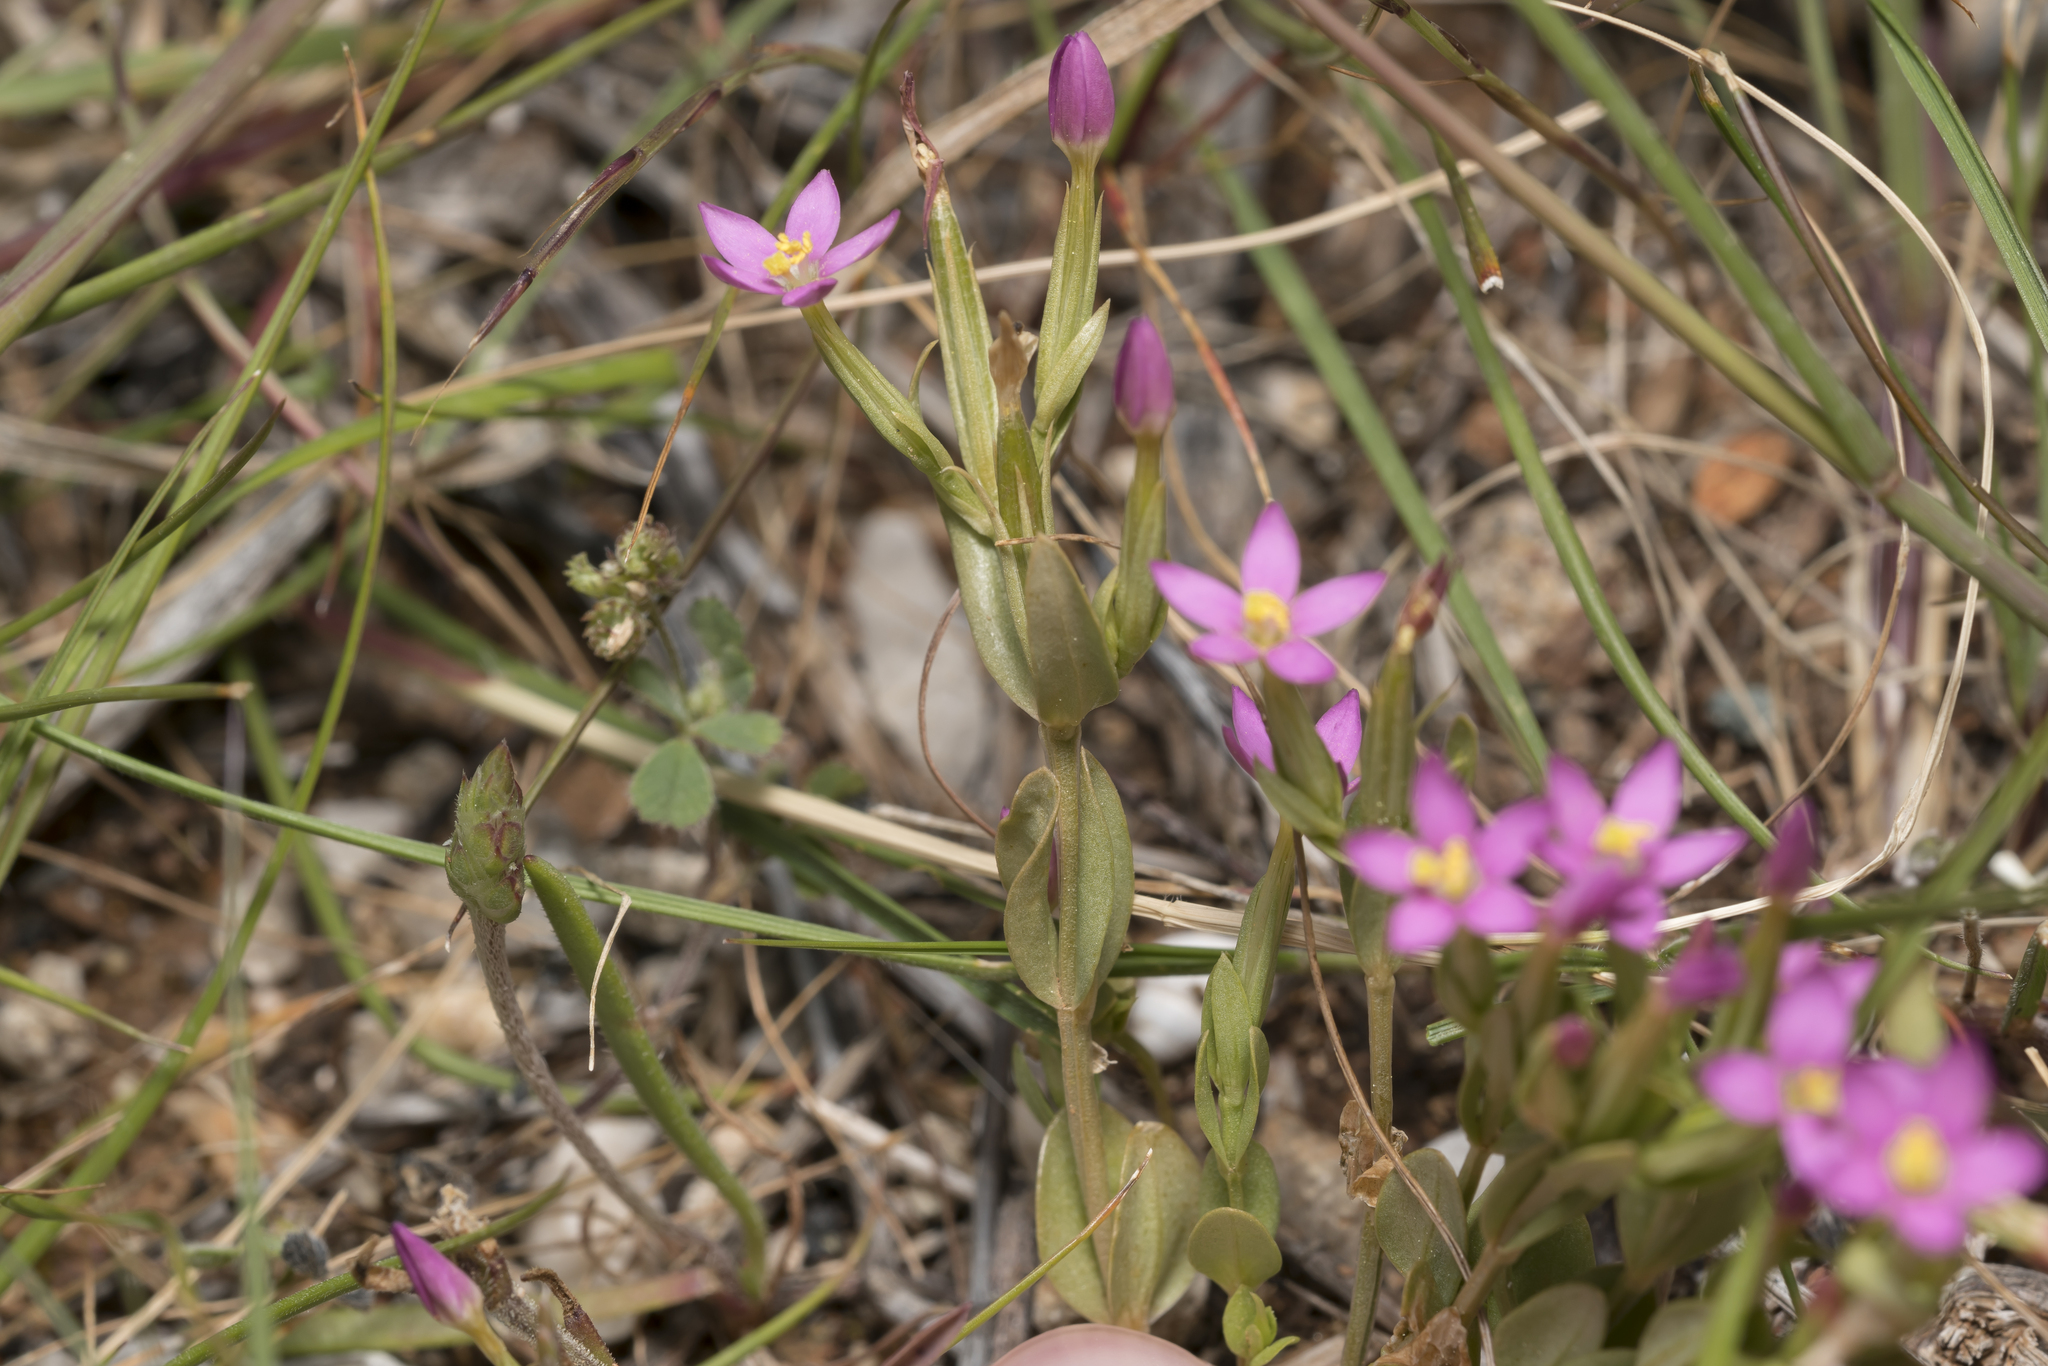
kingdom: Plantae
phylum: Tracheophyta
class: Magnoliopsida
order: Gentianales
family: Gentianaceae
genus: Centaurium
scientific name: Centaurium pulchellum
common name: Lesser centaury
